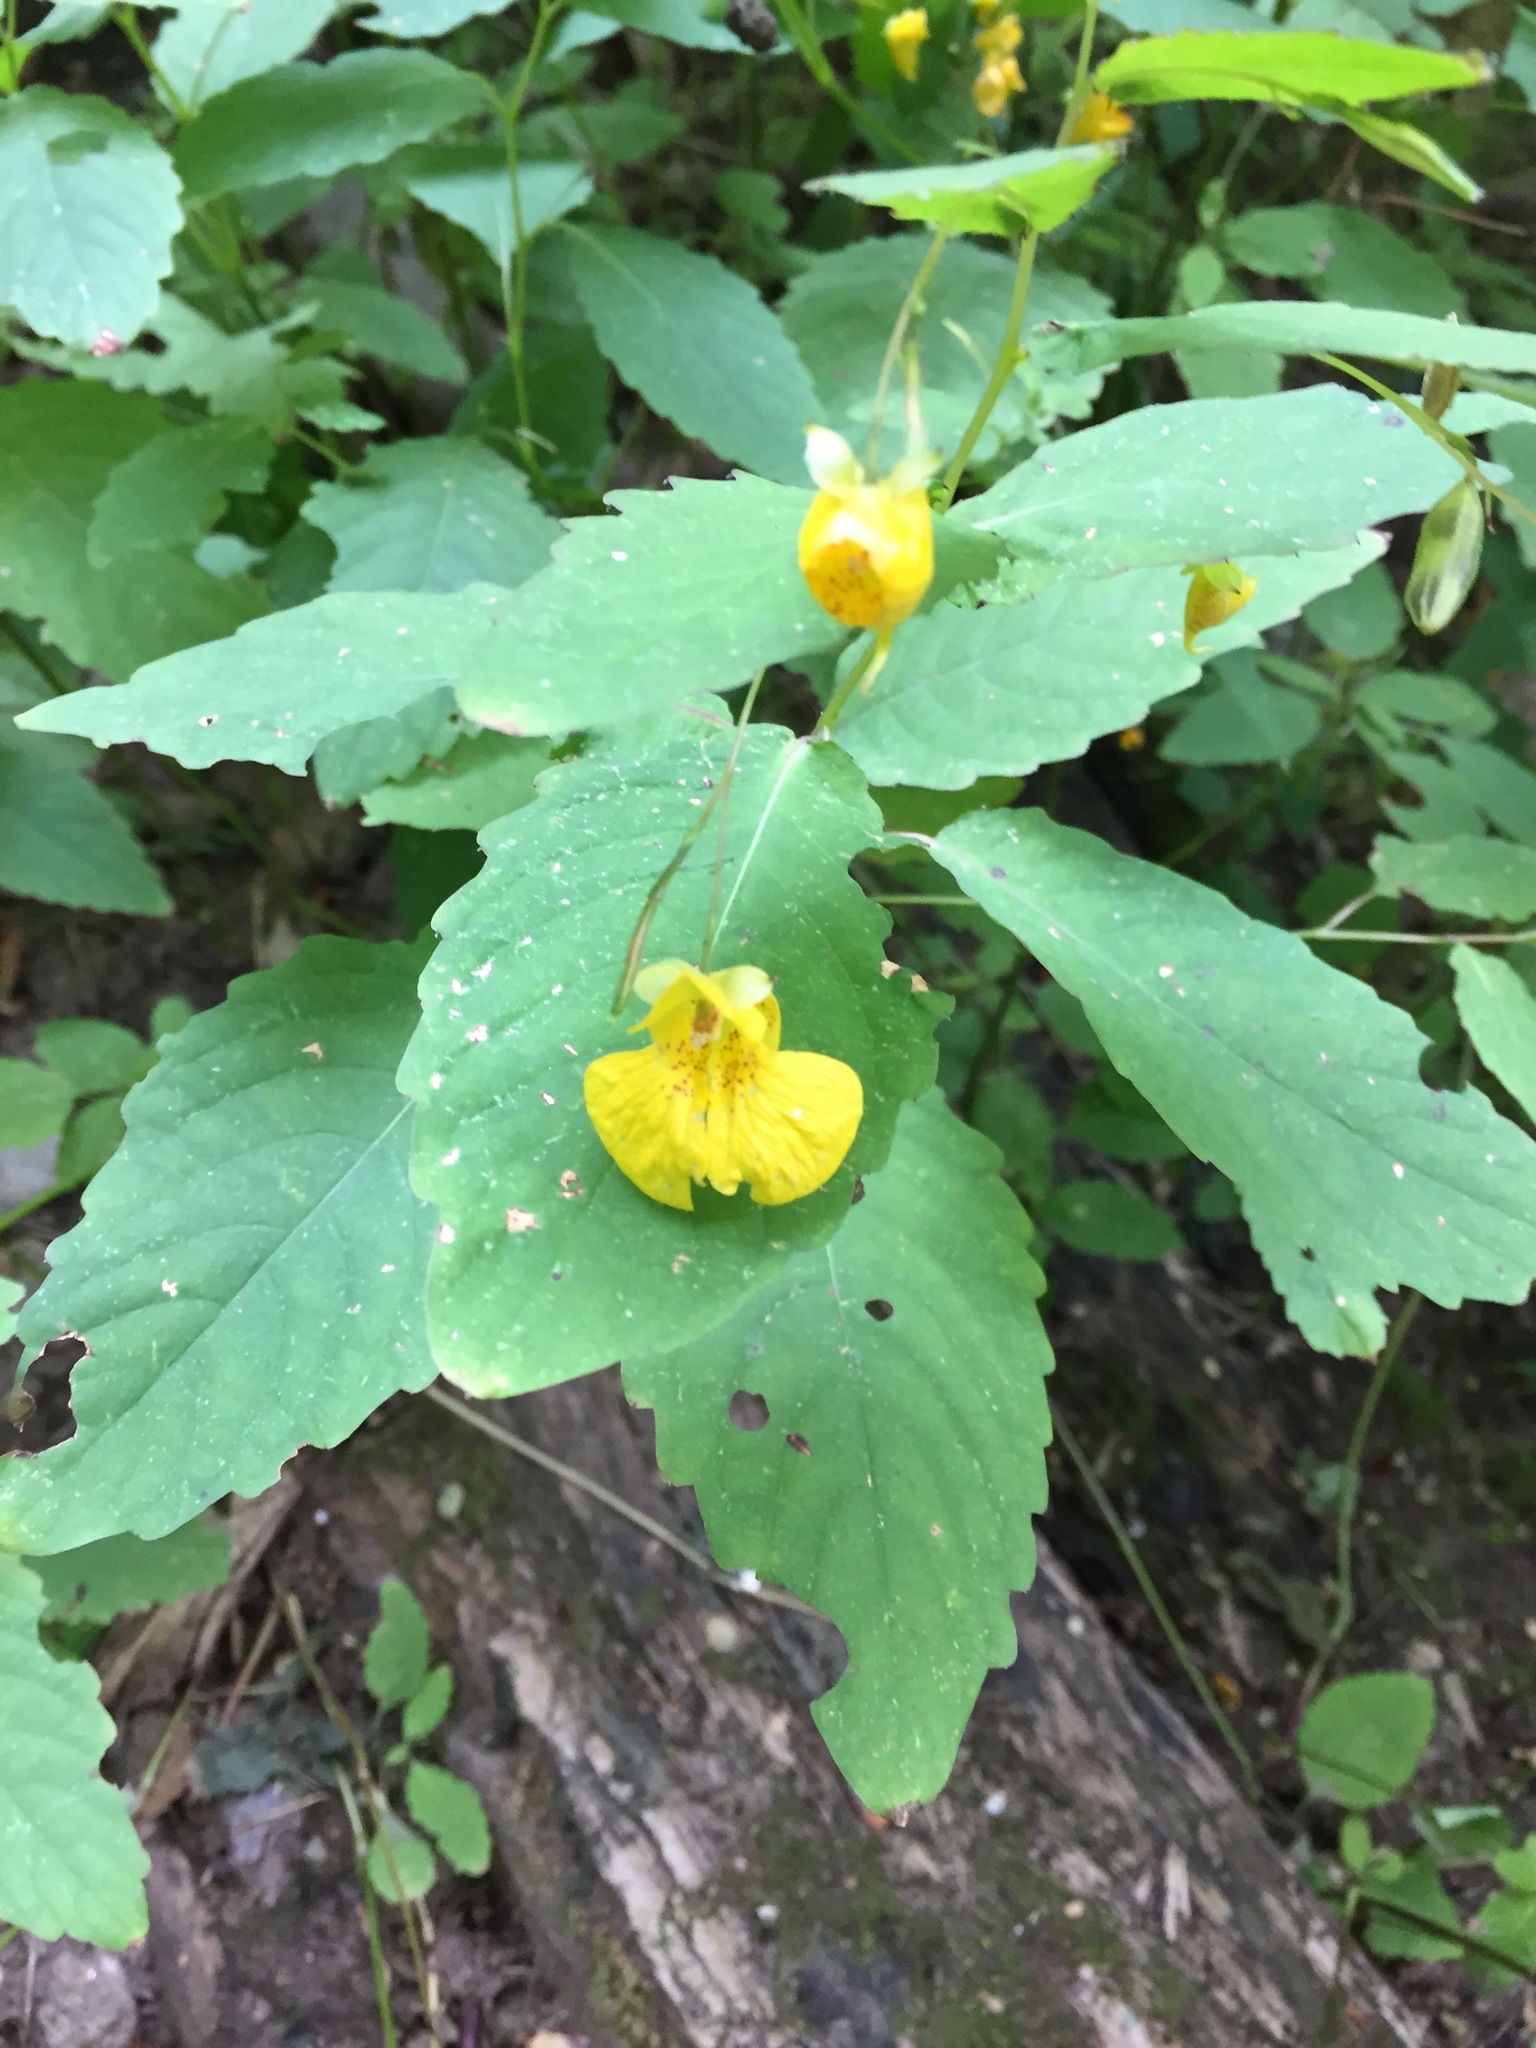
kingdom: Plantae
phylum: Tracheophyta
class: Magnoliopsida
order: Ericales
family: Balsaminaceae
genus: Impatiens
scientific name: Impatiens pallida
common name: Pale snapweed
